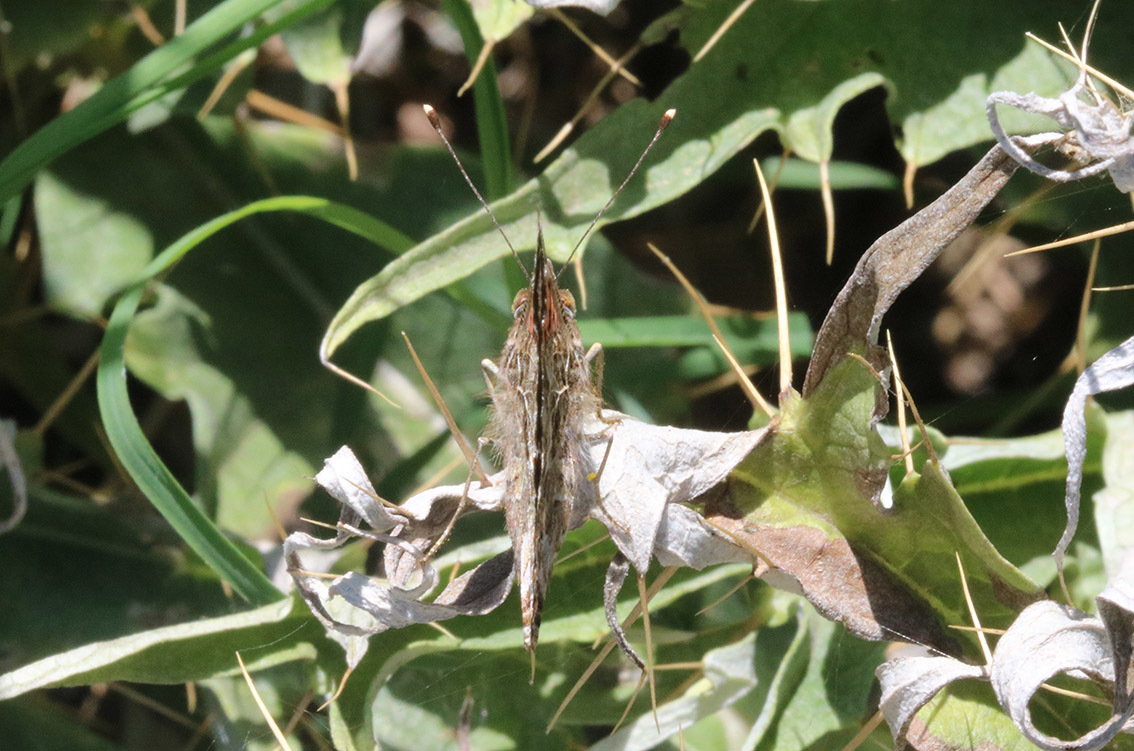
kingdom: Animalia
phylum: Arthropoda
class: Insecta
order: Lepidoptera
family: Nymphalidae
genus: Vanessa
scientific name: Vanessa carye
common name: Subtropical lady
